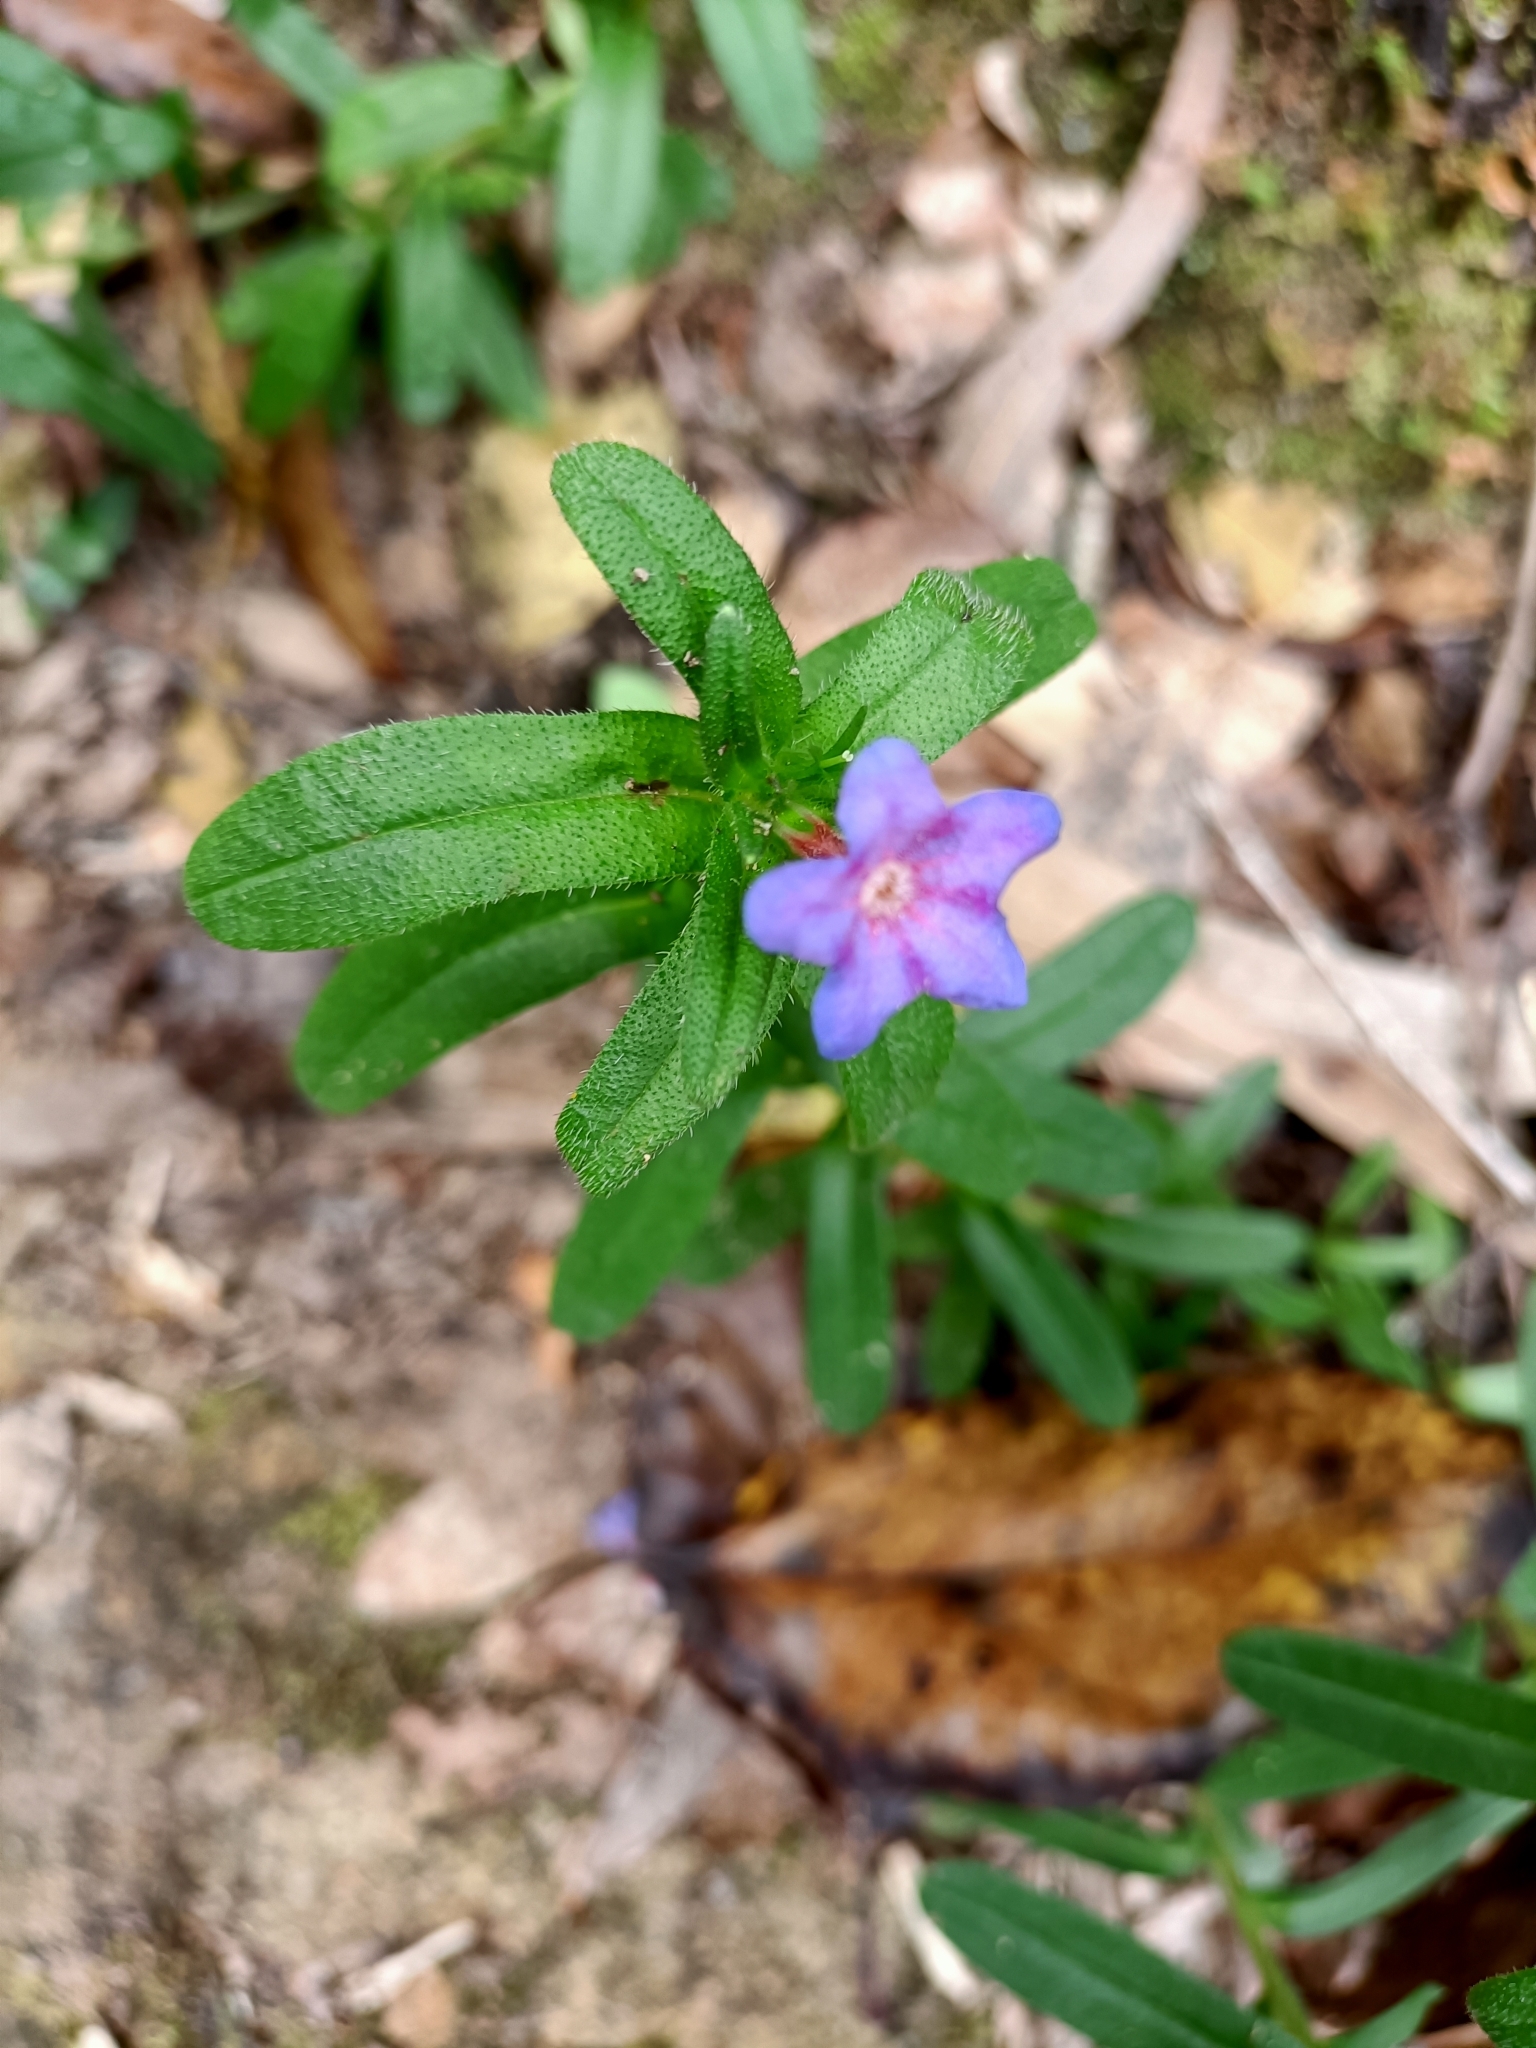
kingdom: Plantae
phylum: Tracheophyta
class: Magnoliopsida
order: Boraginales
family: Boraginaceae
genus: Glandora
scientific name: Glandora prostrata
